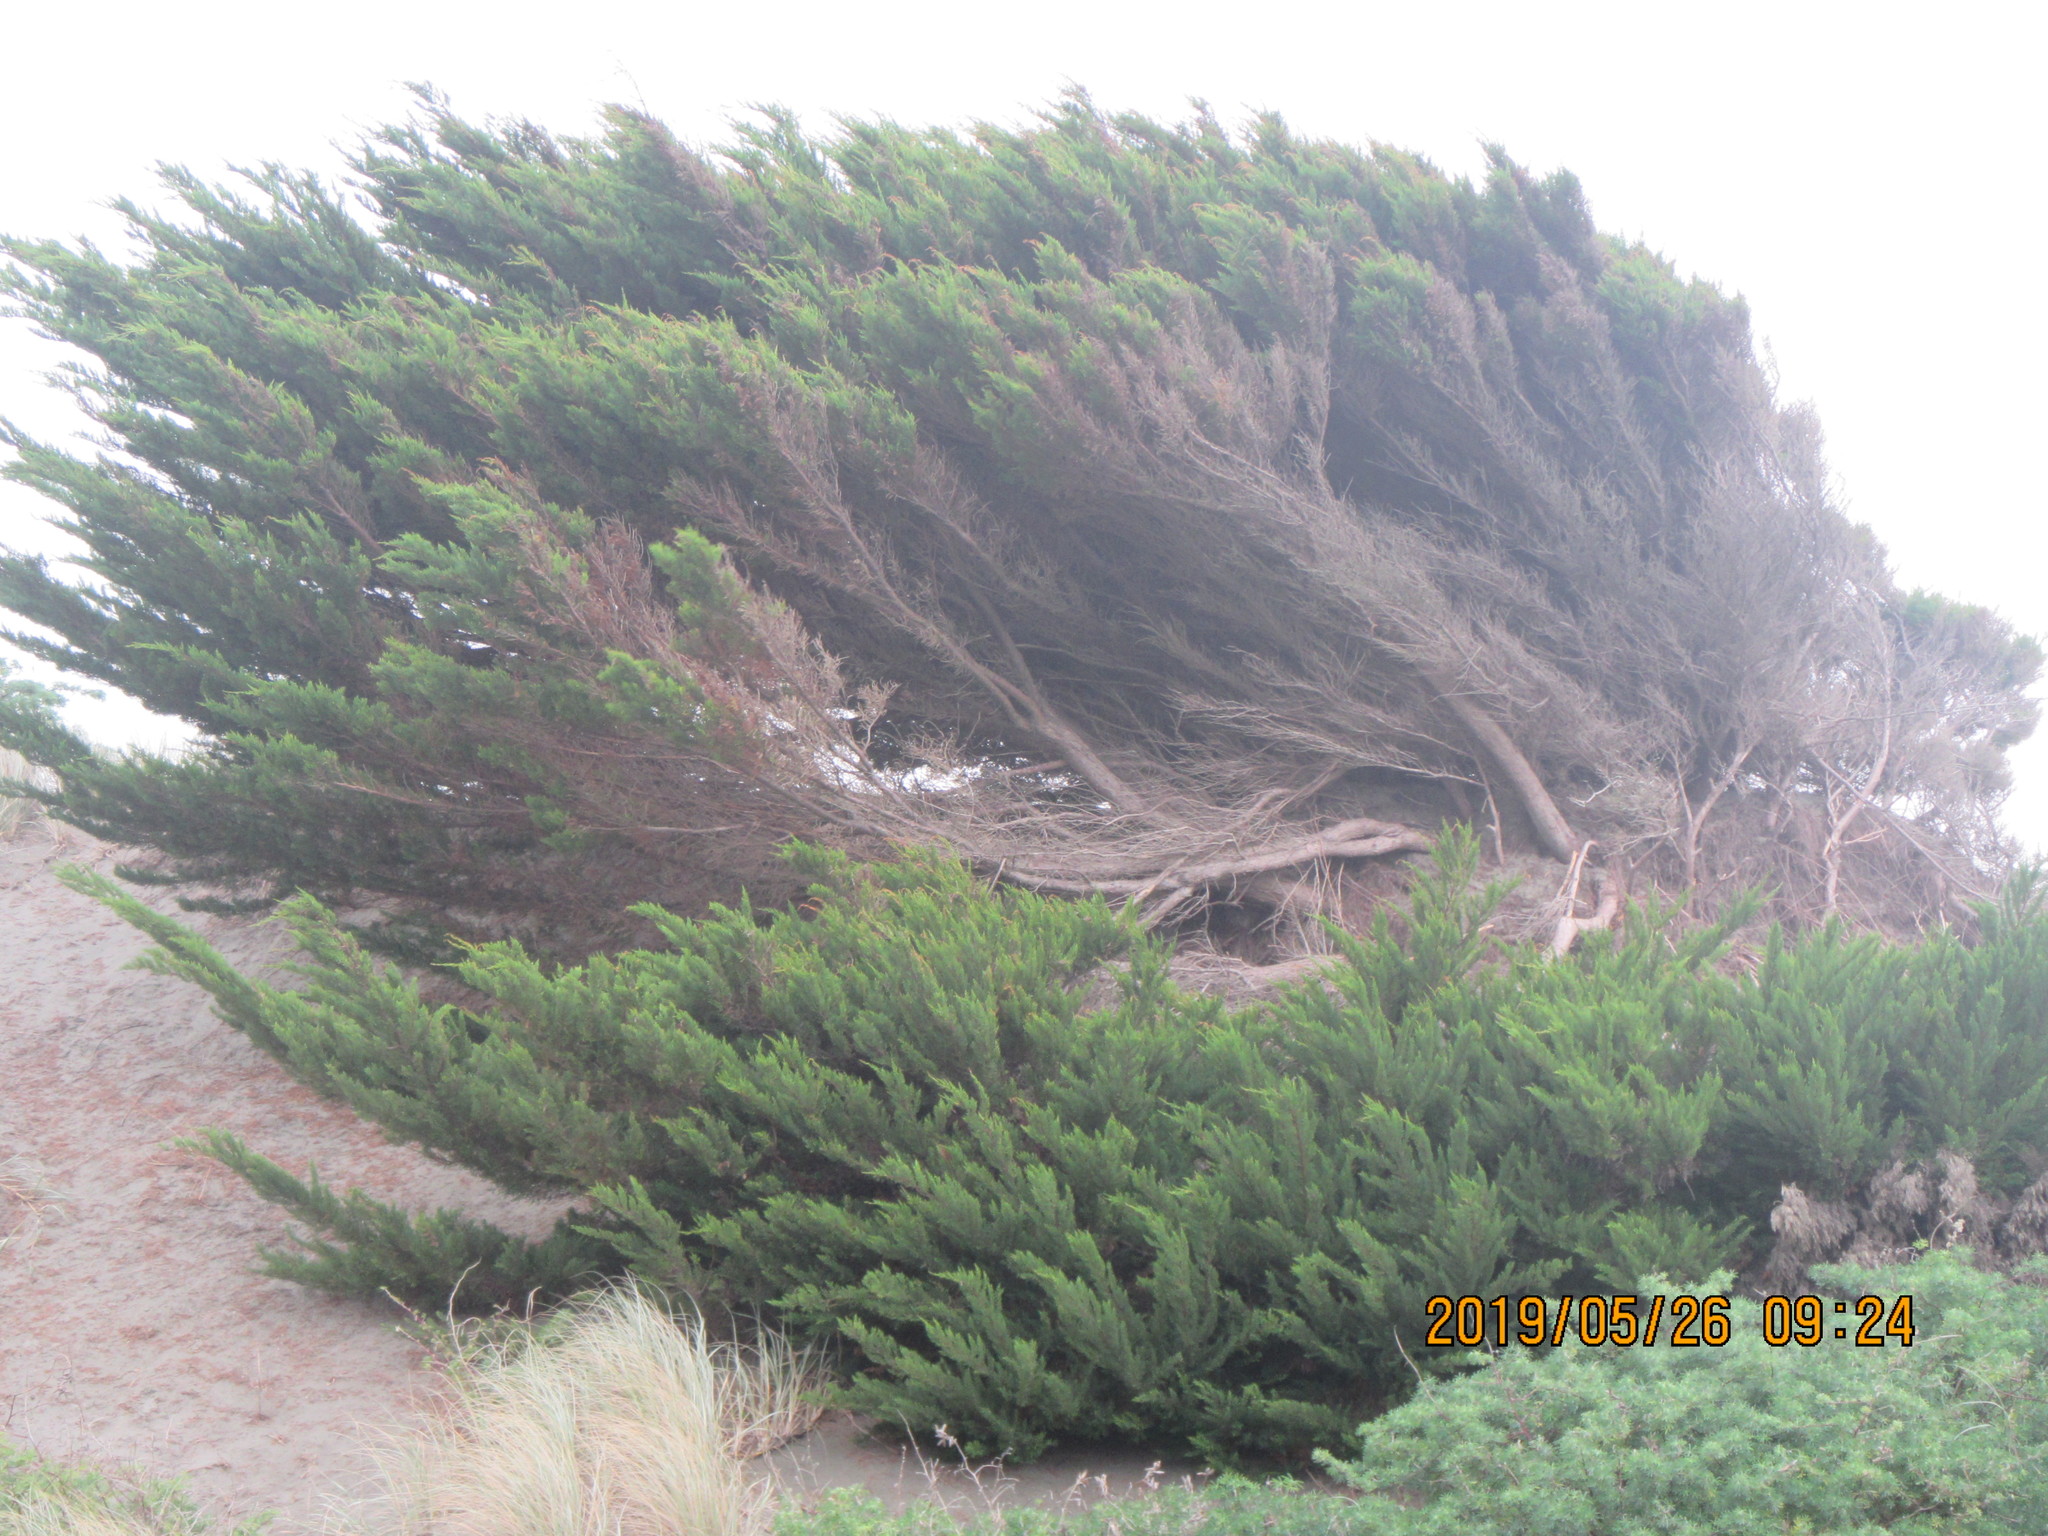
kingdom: Plantae
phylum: Tracheophyta
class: Pinopsida
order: Pinales
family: Cupressaceae
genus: Cupressus
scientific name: Cupressus macrocarpa
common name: Monterey cypress
